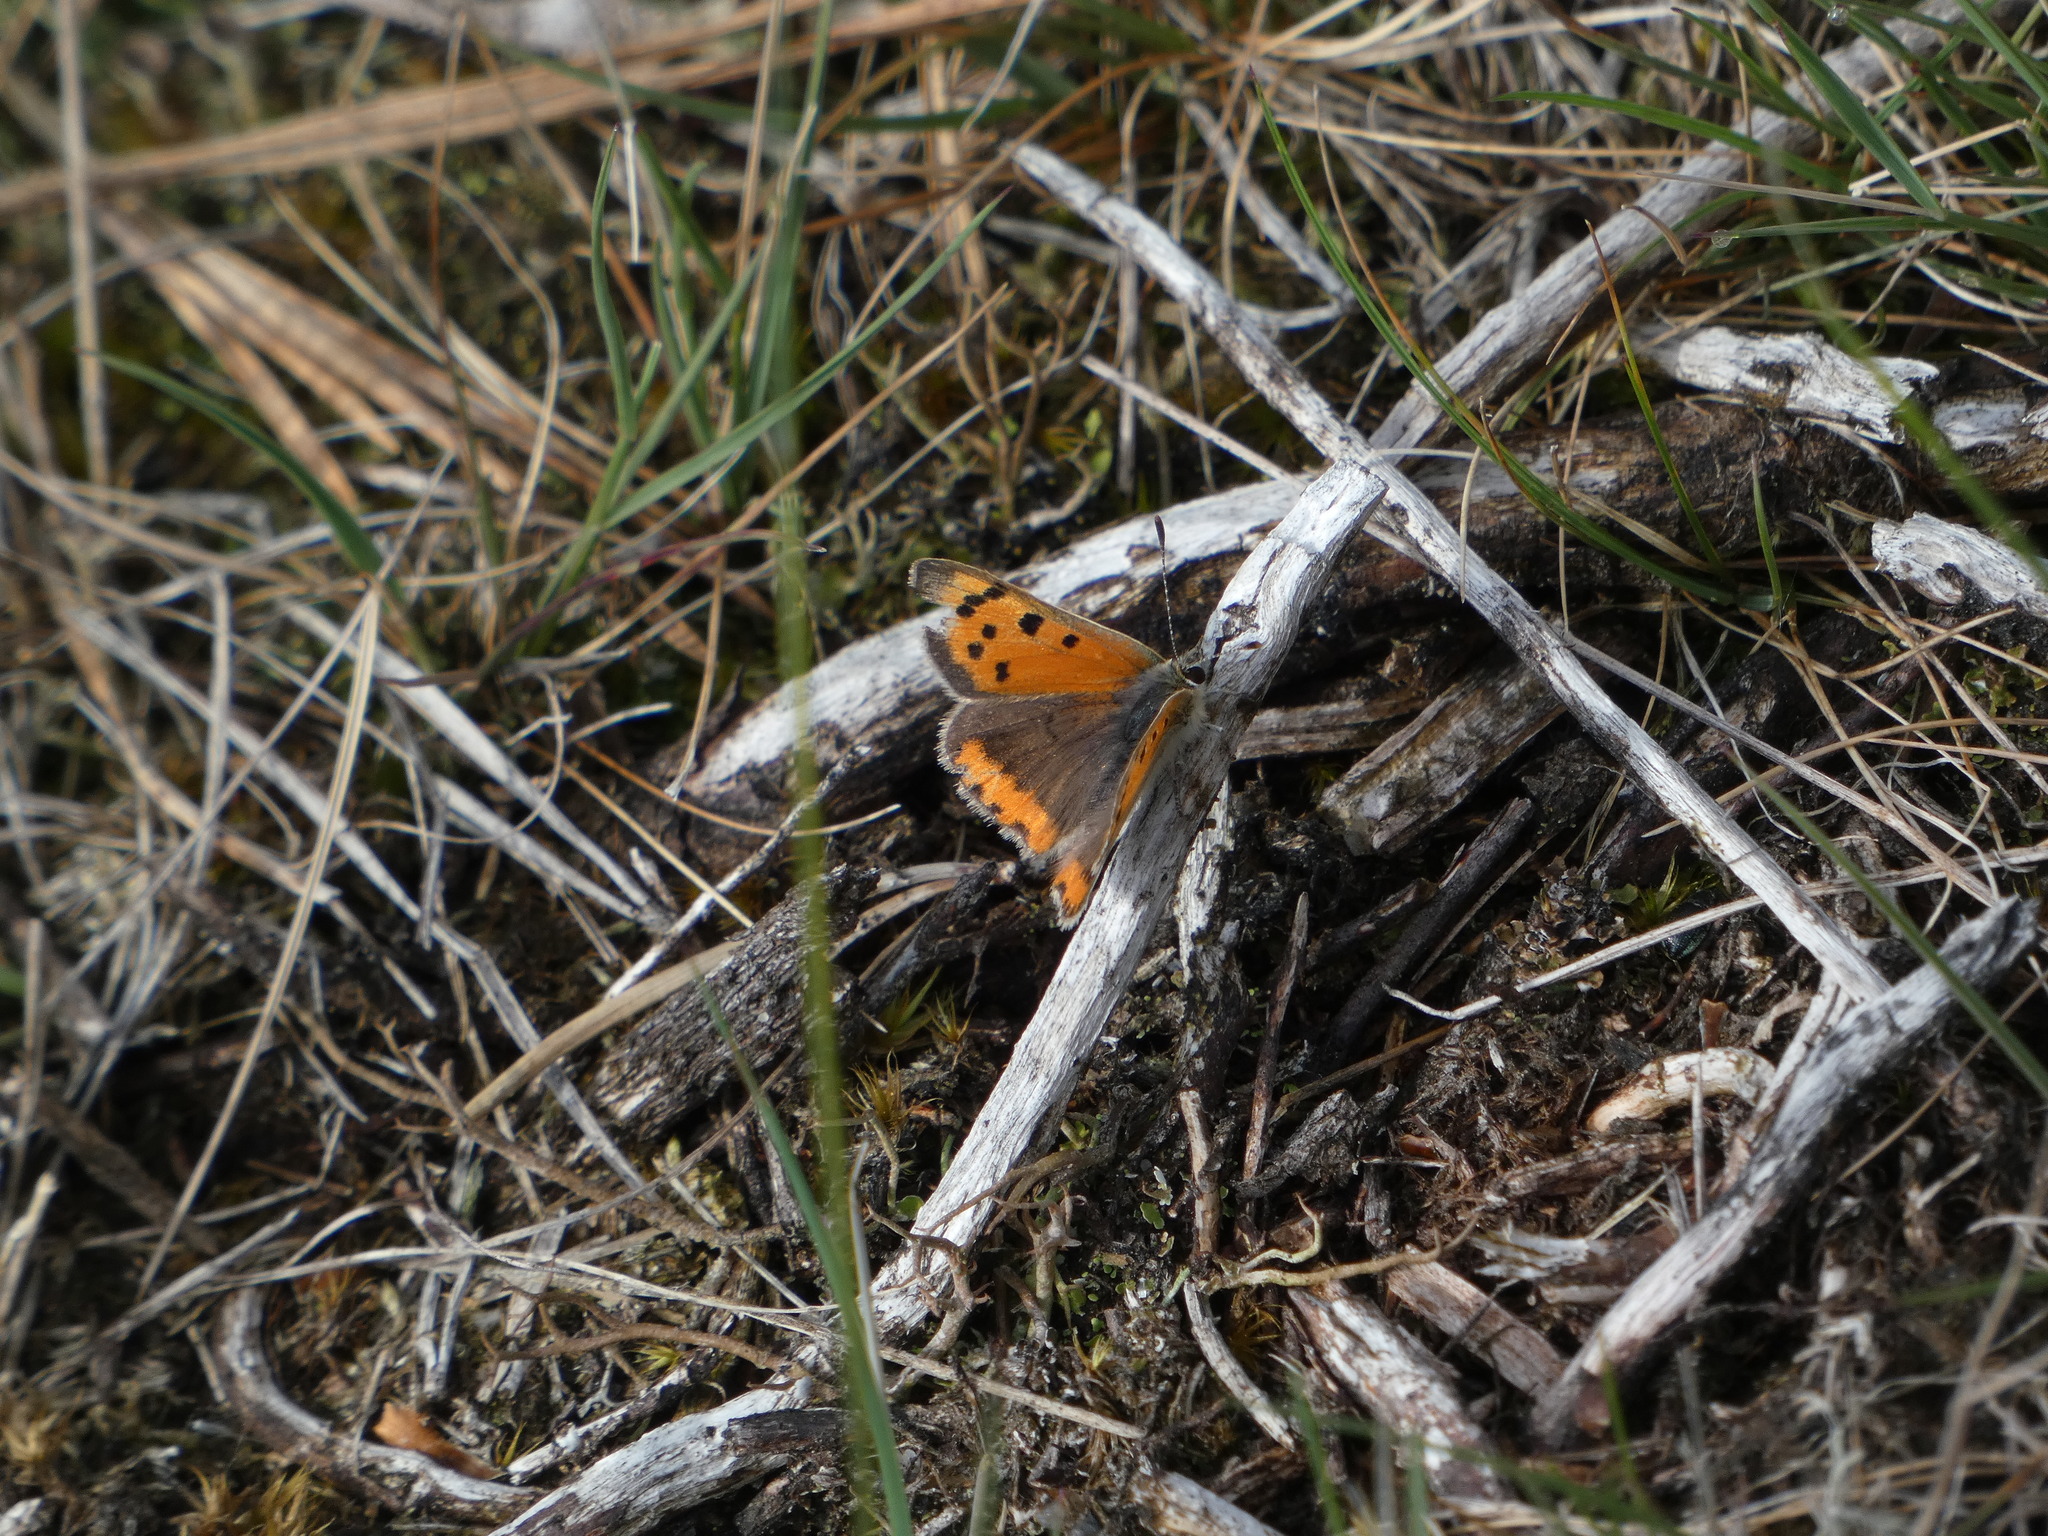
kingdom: Animalia
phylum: Arthropoda
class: Insecta
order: Lepidoptera
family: Lycaenidae
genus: Lycaena
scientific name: Lycaena phlaeas
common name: Small copper
